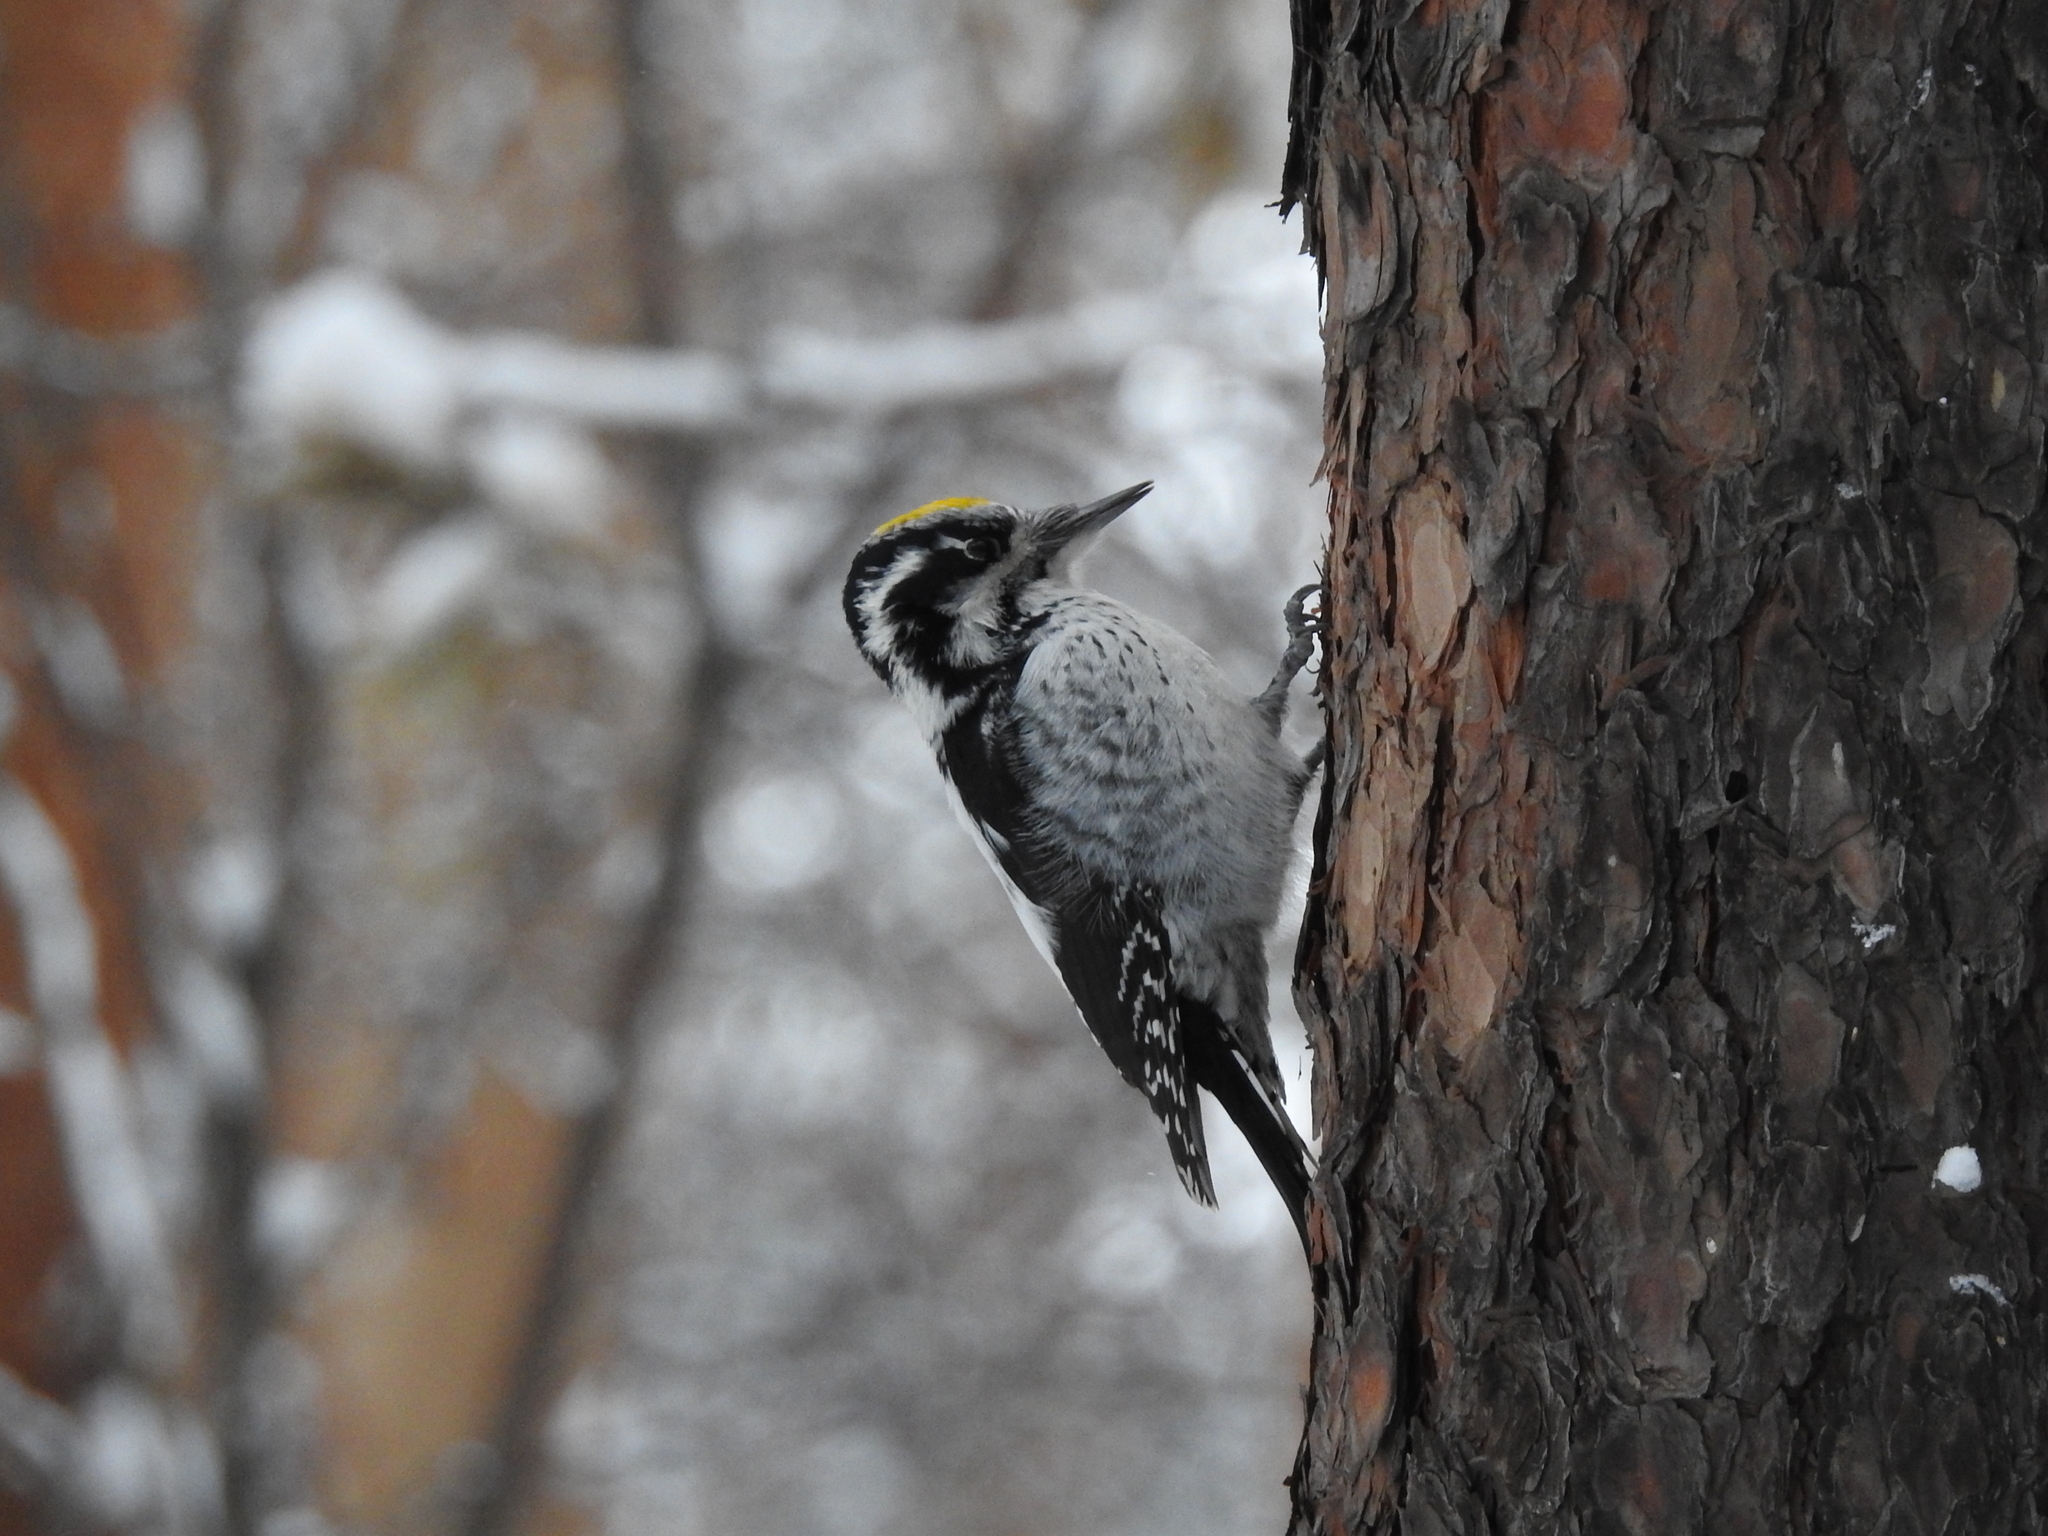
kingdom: Animalia
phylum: Chordata
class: Aves
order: Piciformes
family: Picidae
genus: Picoides
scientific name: Picoides tridactylus
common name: Eurasian three-toed woodpecker
